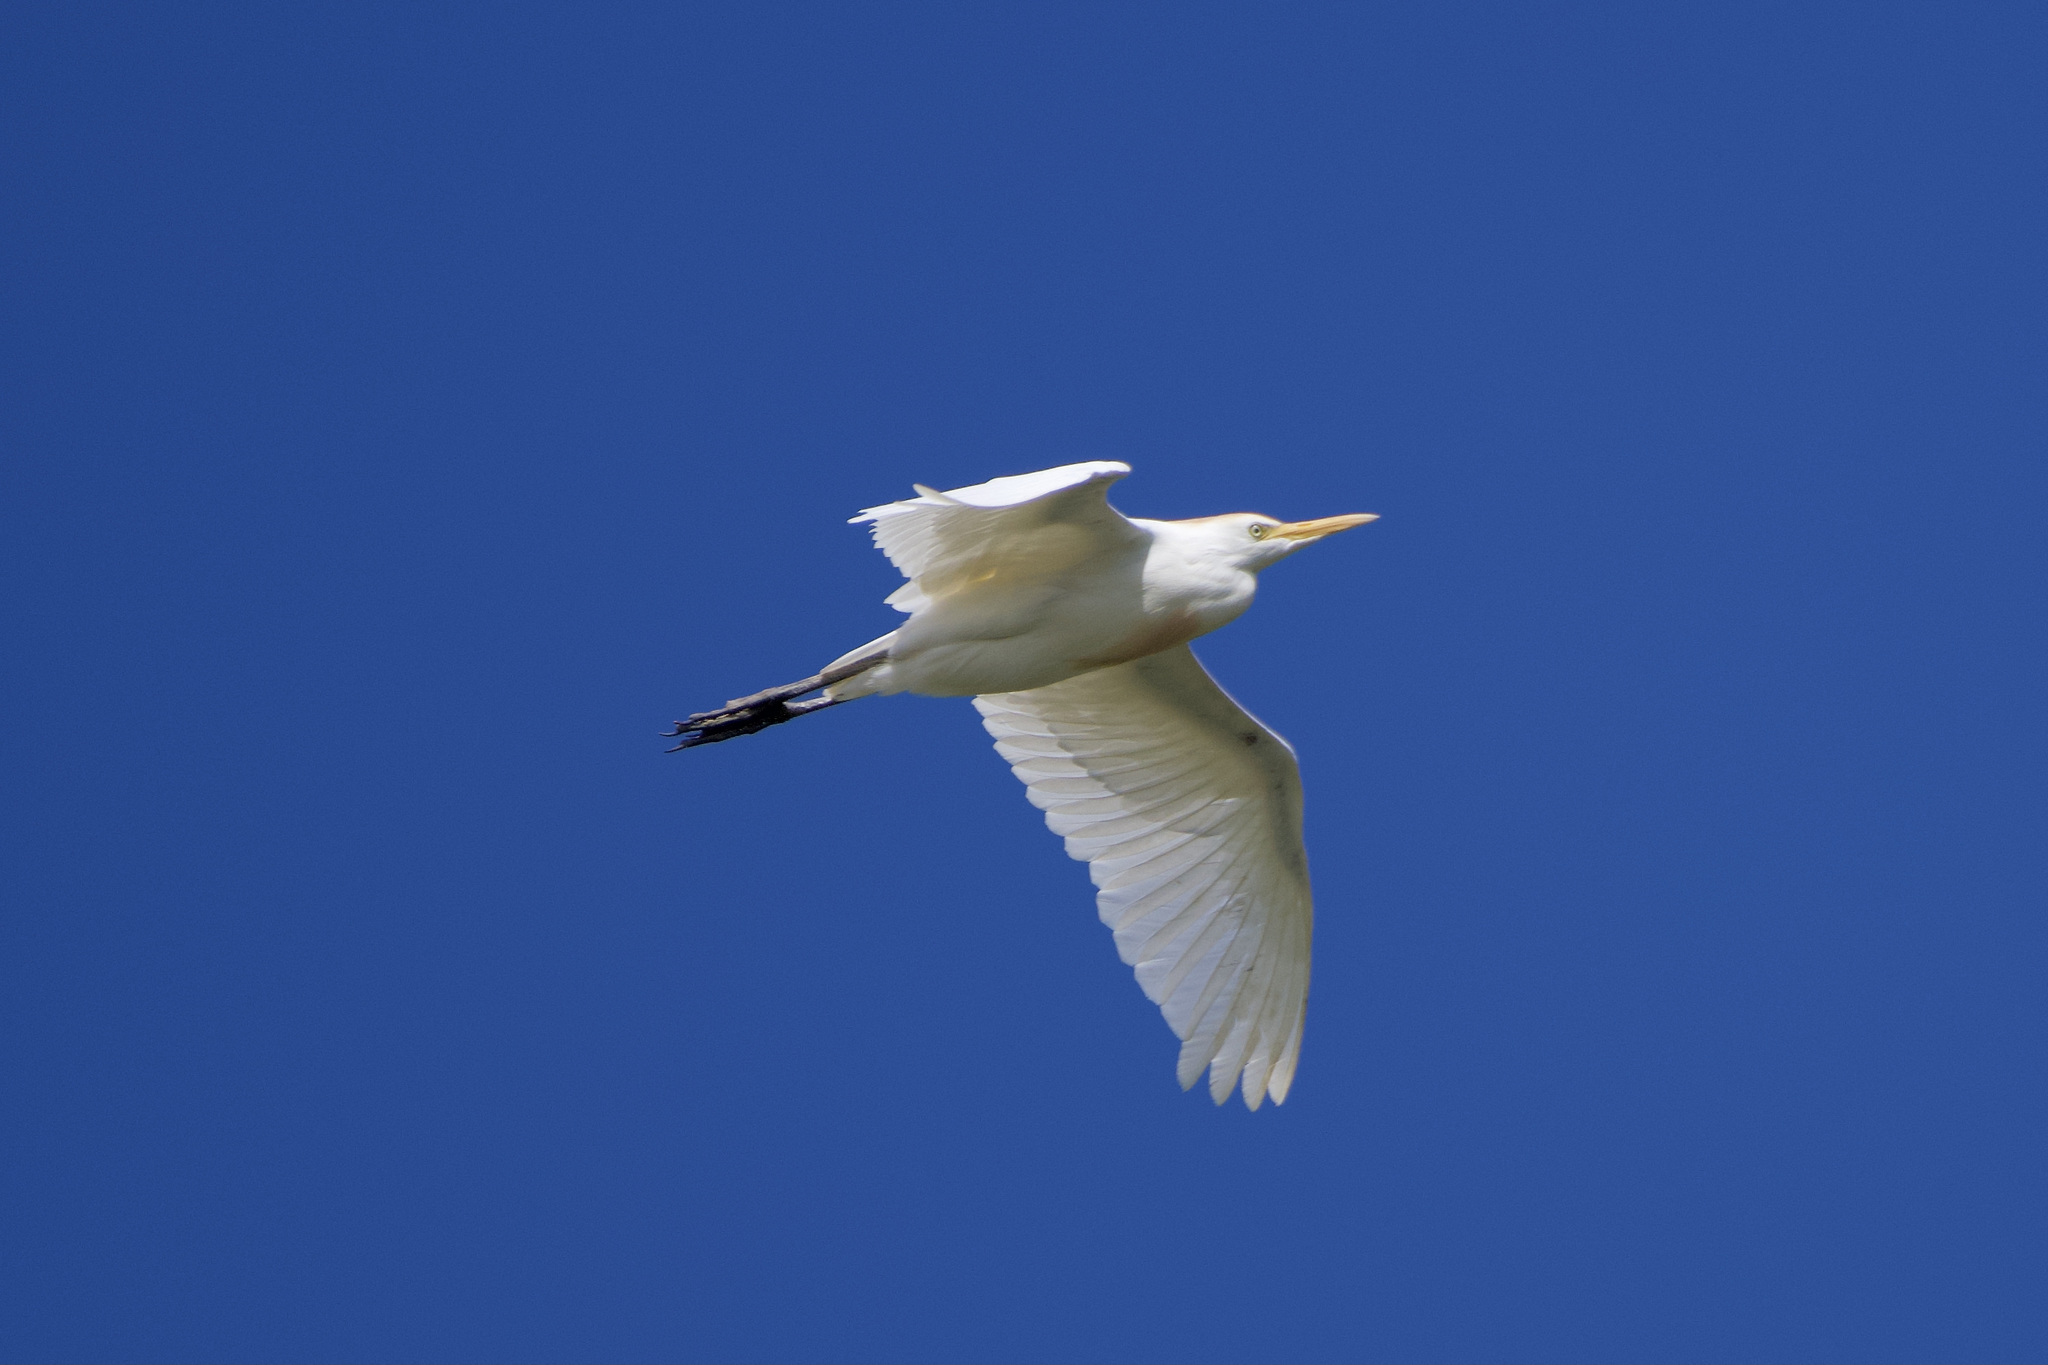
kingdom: Animalia
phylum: Chordata
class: Aves
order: Pelecaniformes
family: Ardeidae
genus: Bubulcus
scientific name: Bubulcus ibis
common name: Cattle egret
